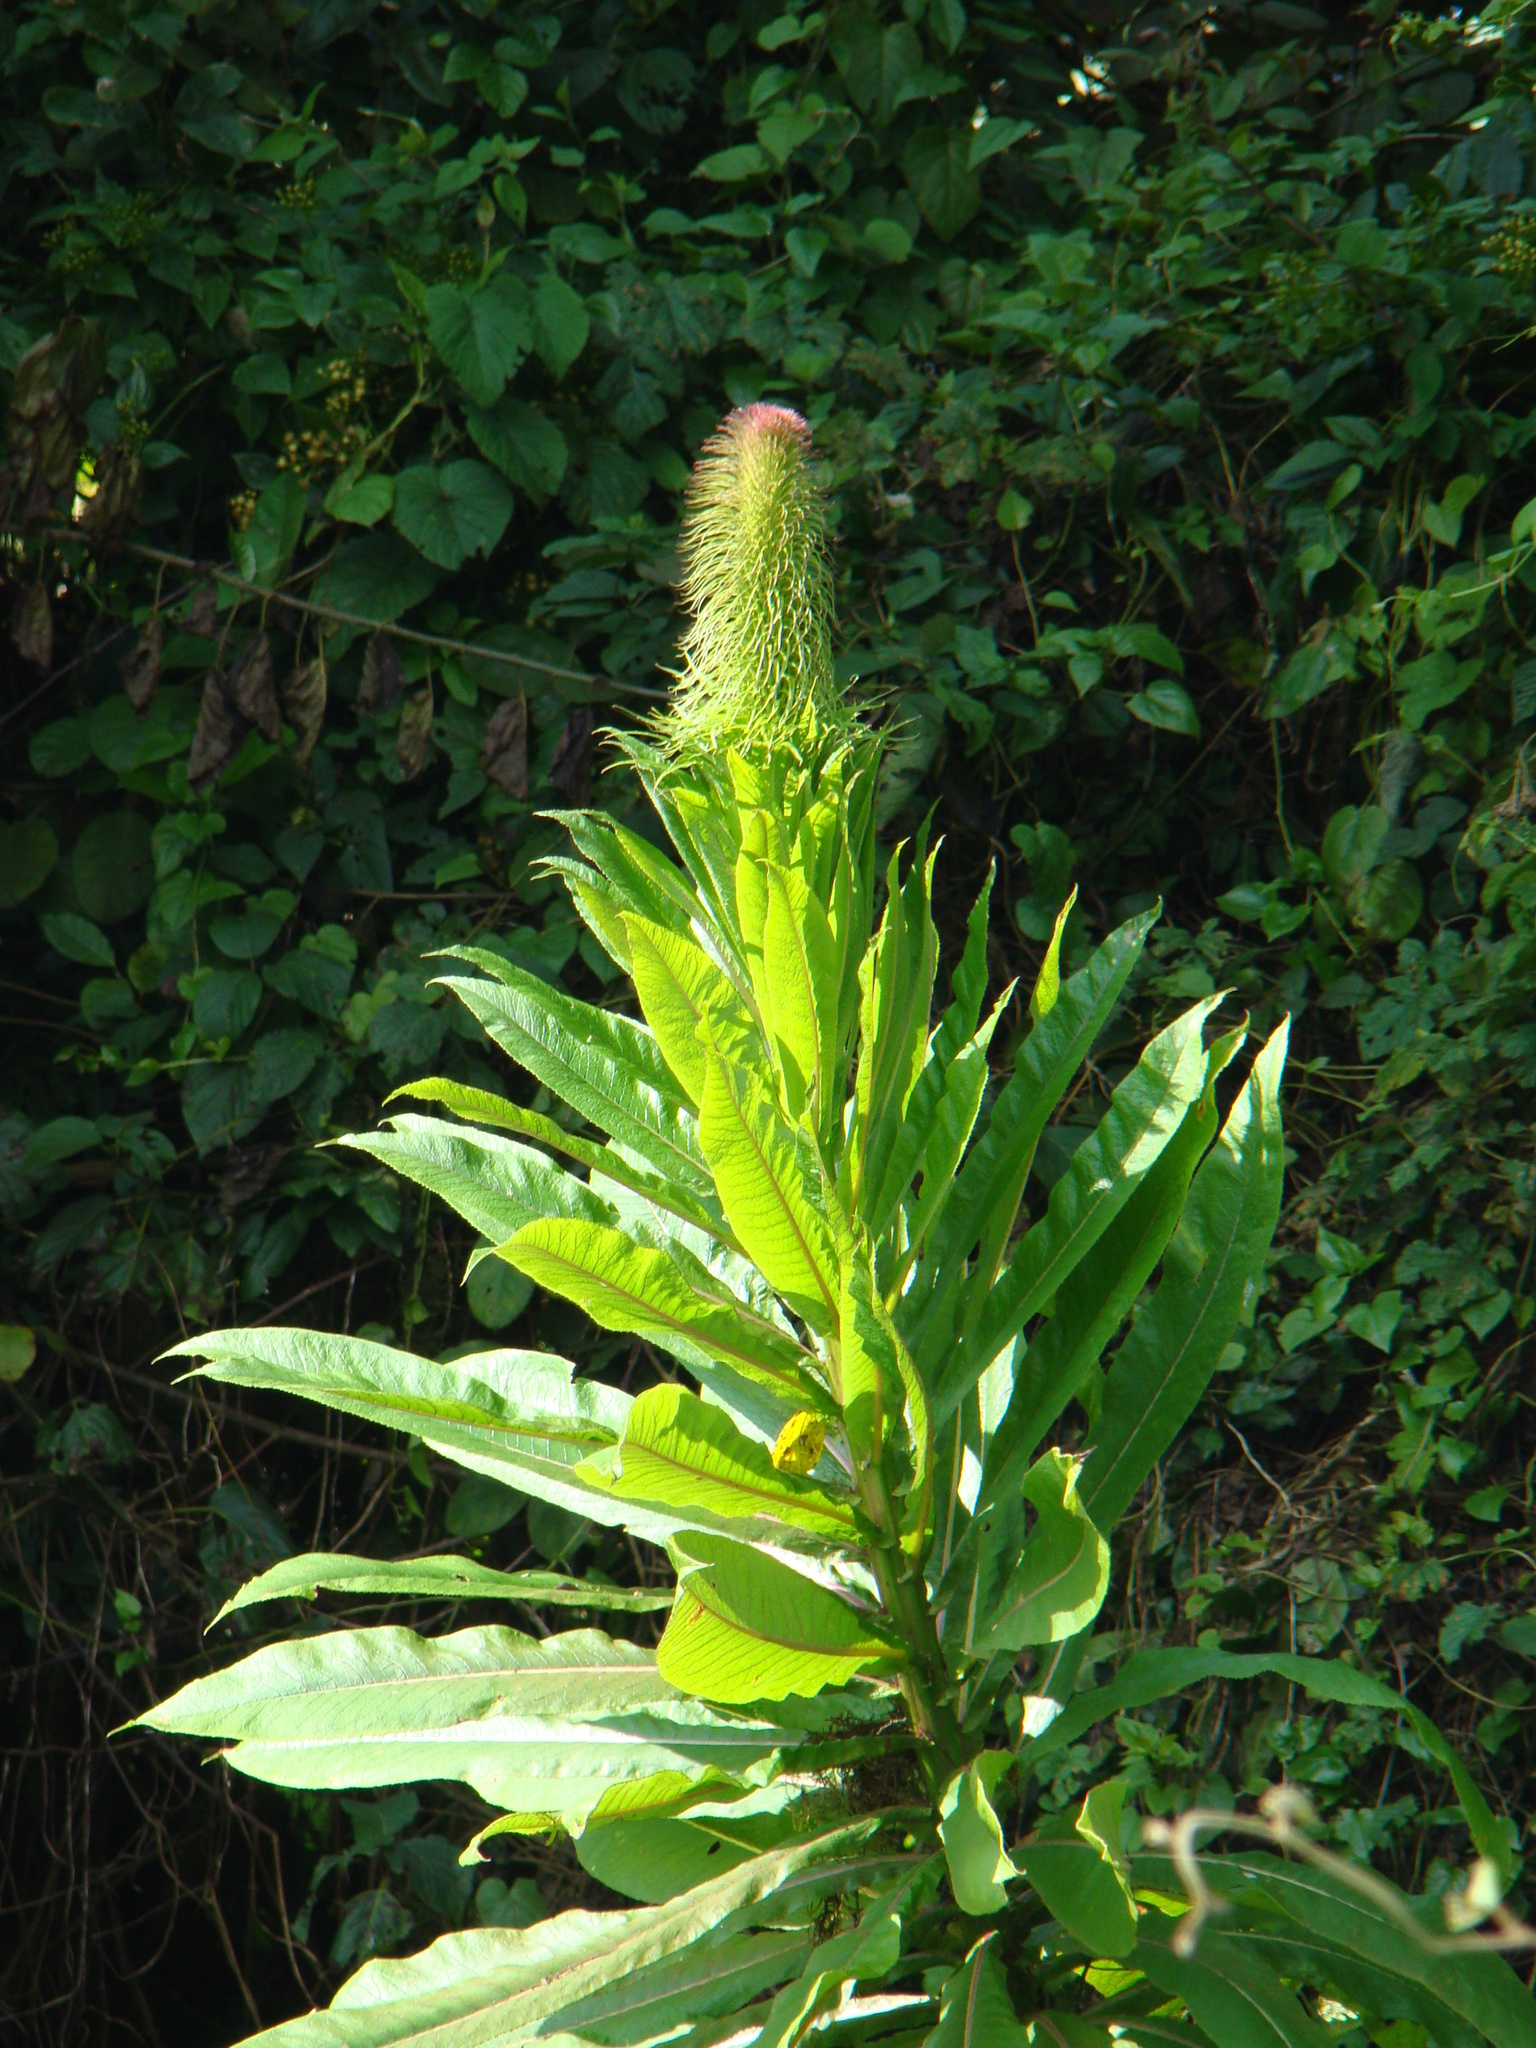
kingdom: Plantae
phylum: Tracheophyta
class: Magnoliopsida
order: Asterales
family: Campanulaceae
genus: Lobelia
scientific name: Lobelia giberroa
